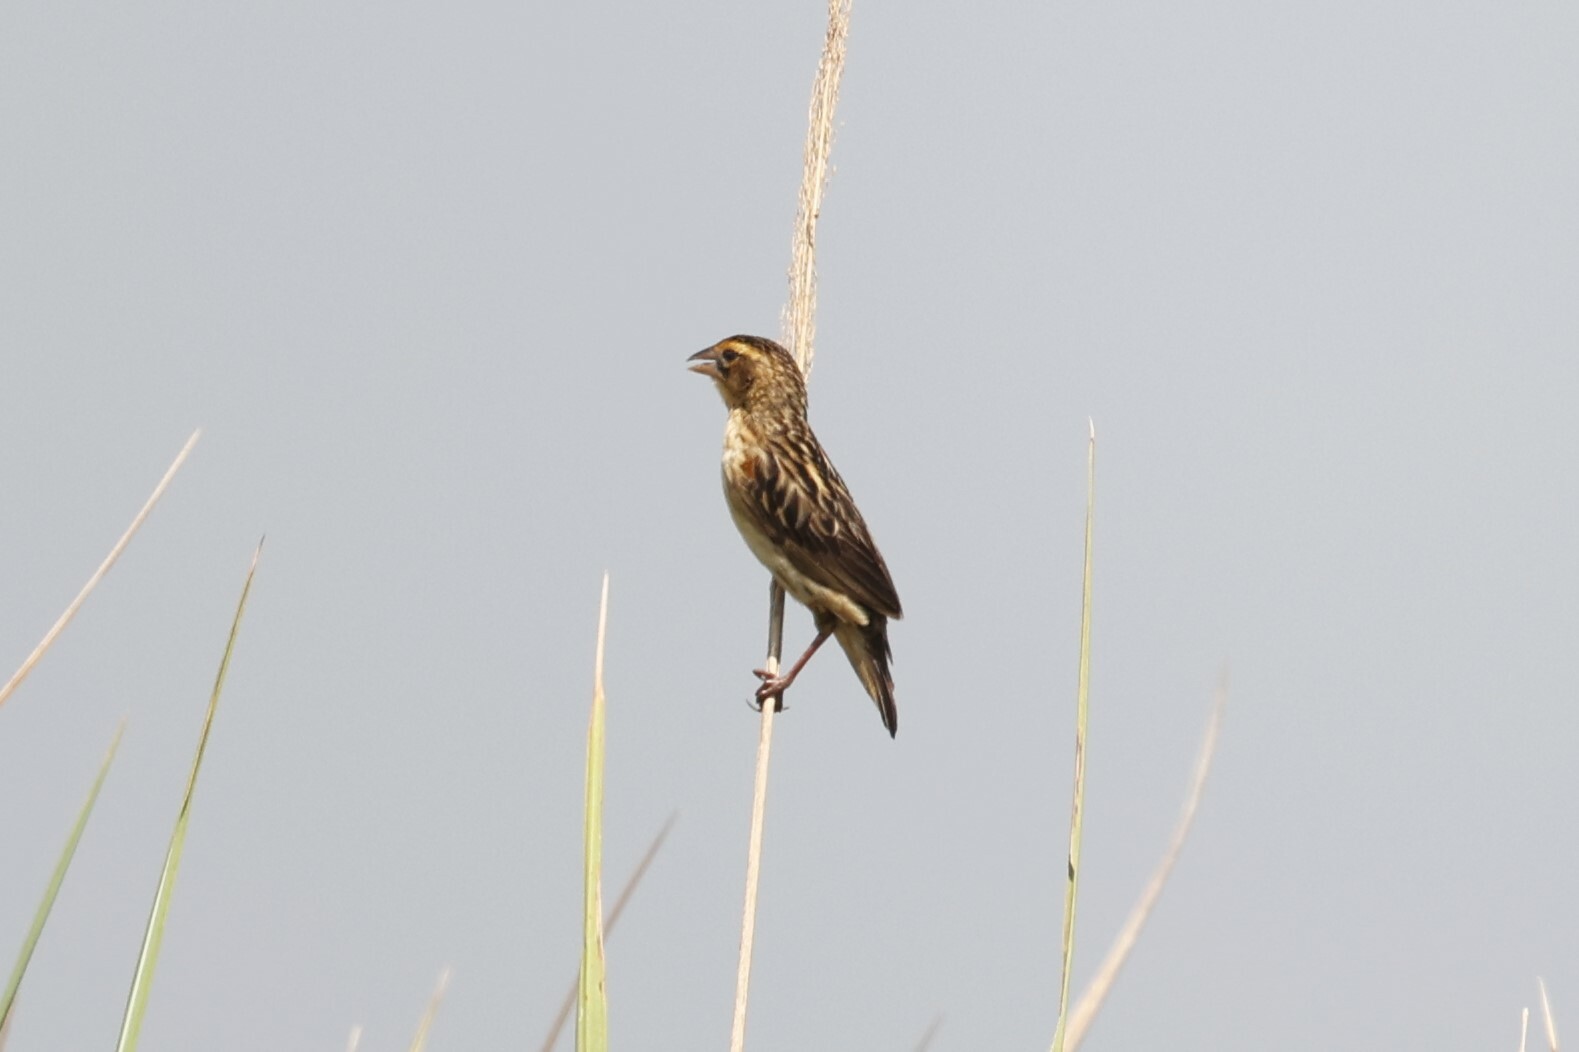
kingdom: Animalia
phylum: Chordata
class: Aves
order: Passeriformes
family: Ploceidae
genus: Euplectes
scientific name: Euplectes axillaris
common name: Fan-tailed widowbird
